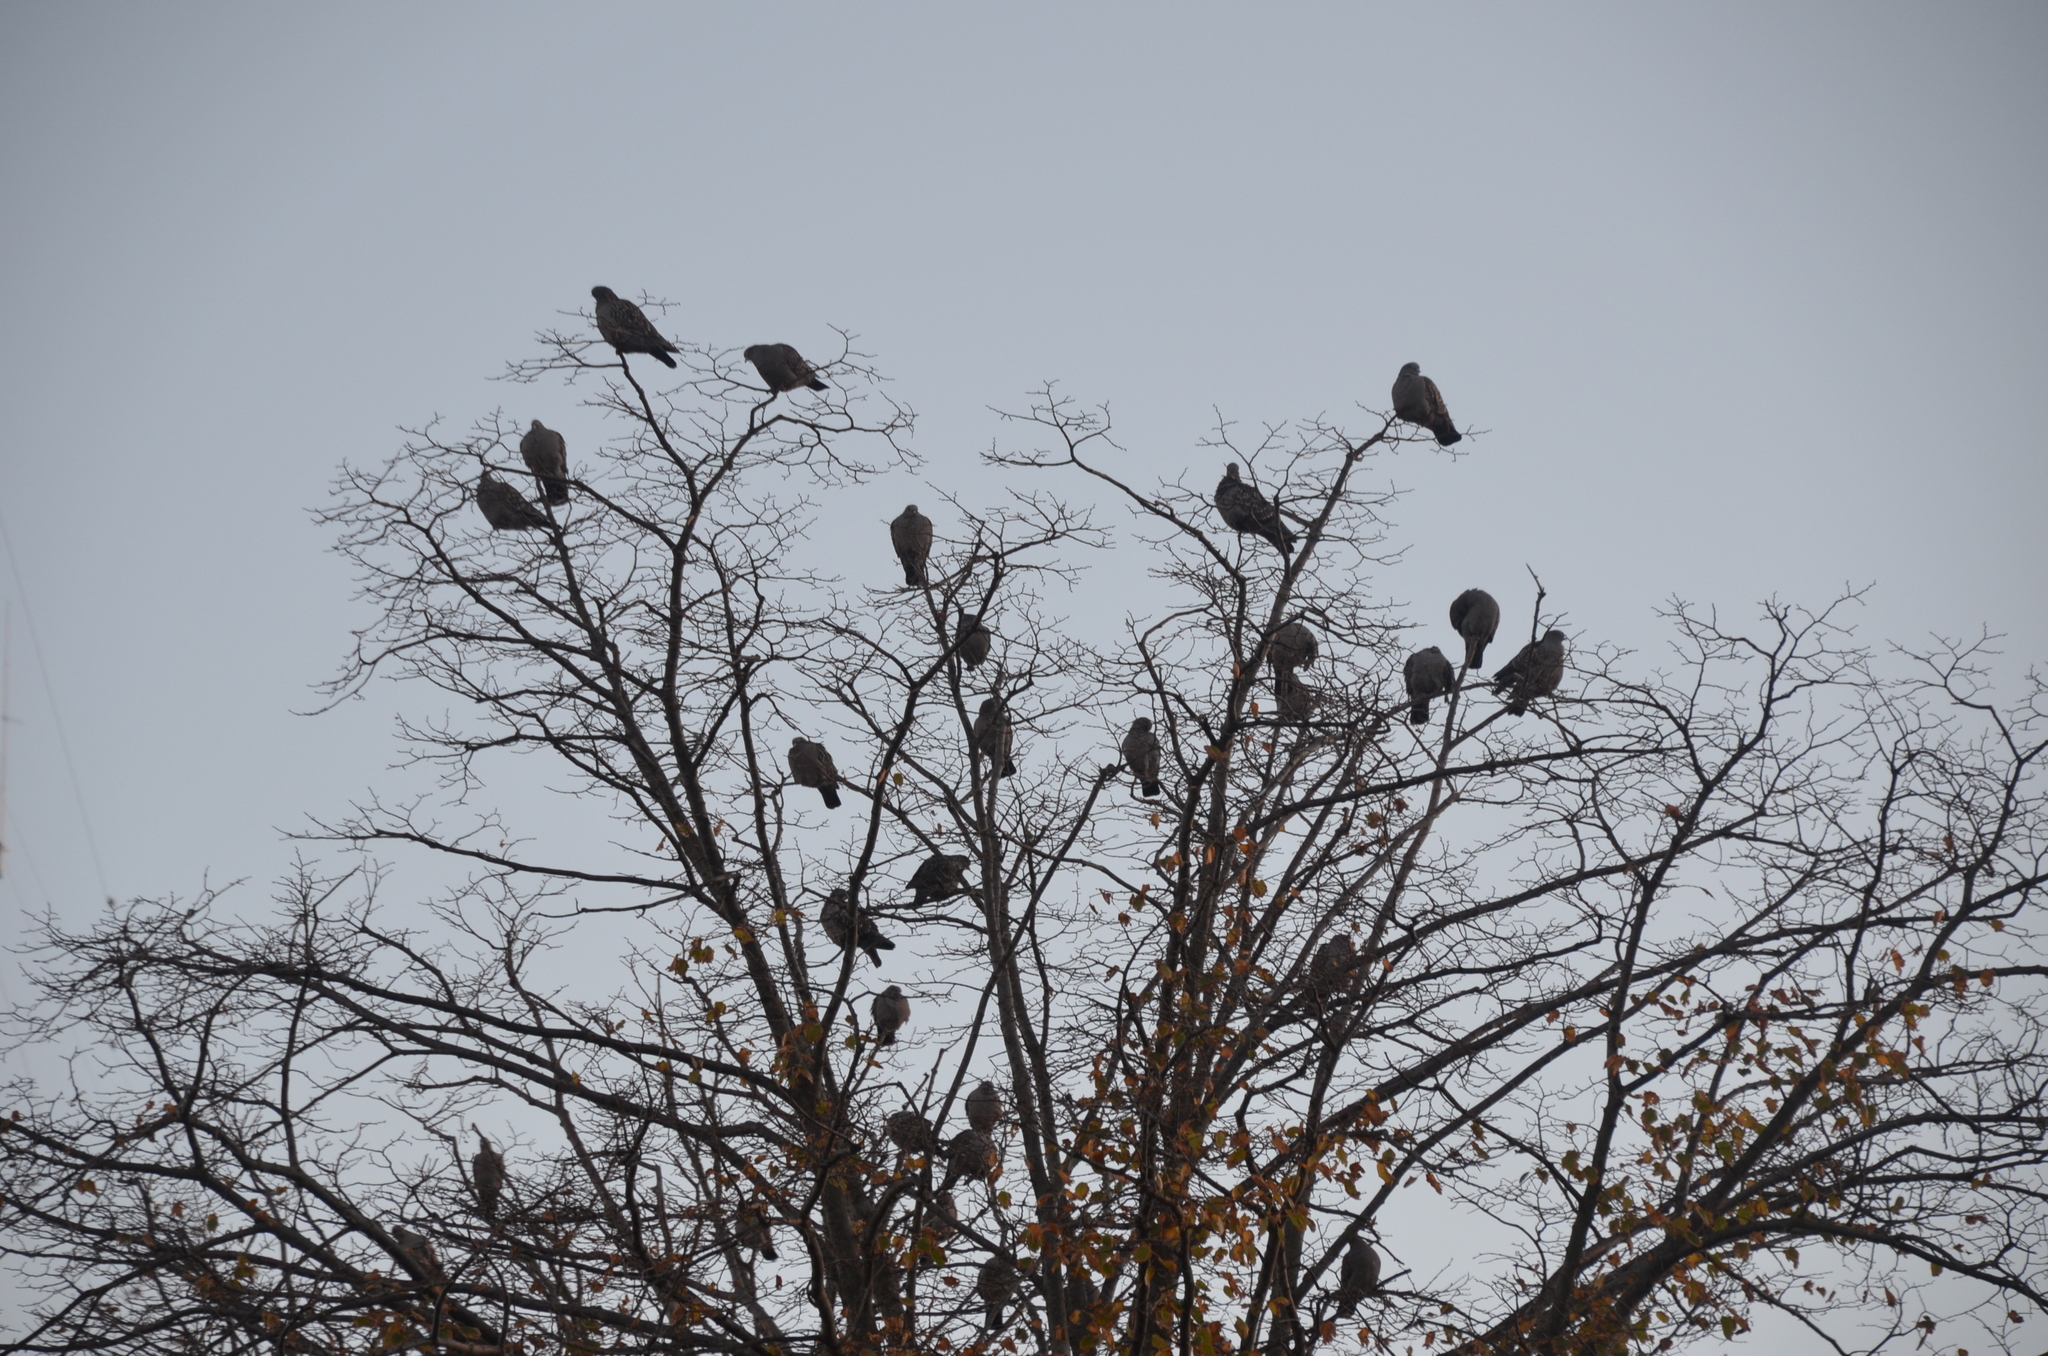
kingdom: Animalia
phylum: Chordata
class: Aves
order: Columbiformes
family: Columbidae
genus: Patagioenas
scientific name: Patagioenas maculosa
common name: Spot-winged pigeon
